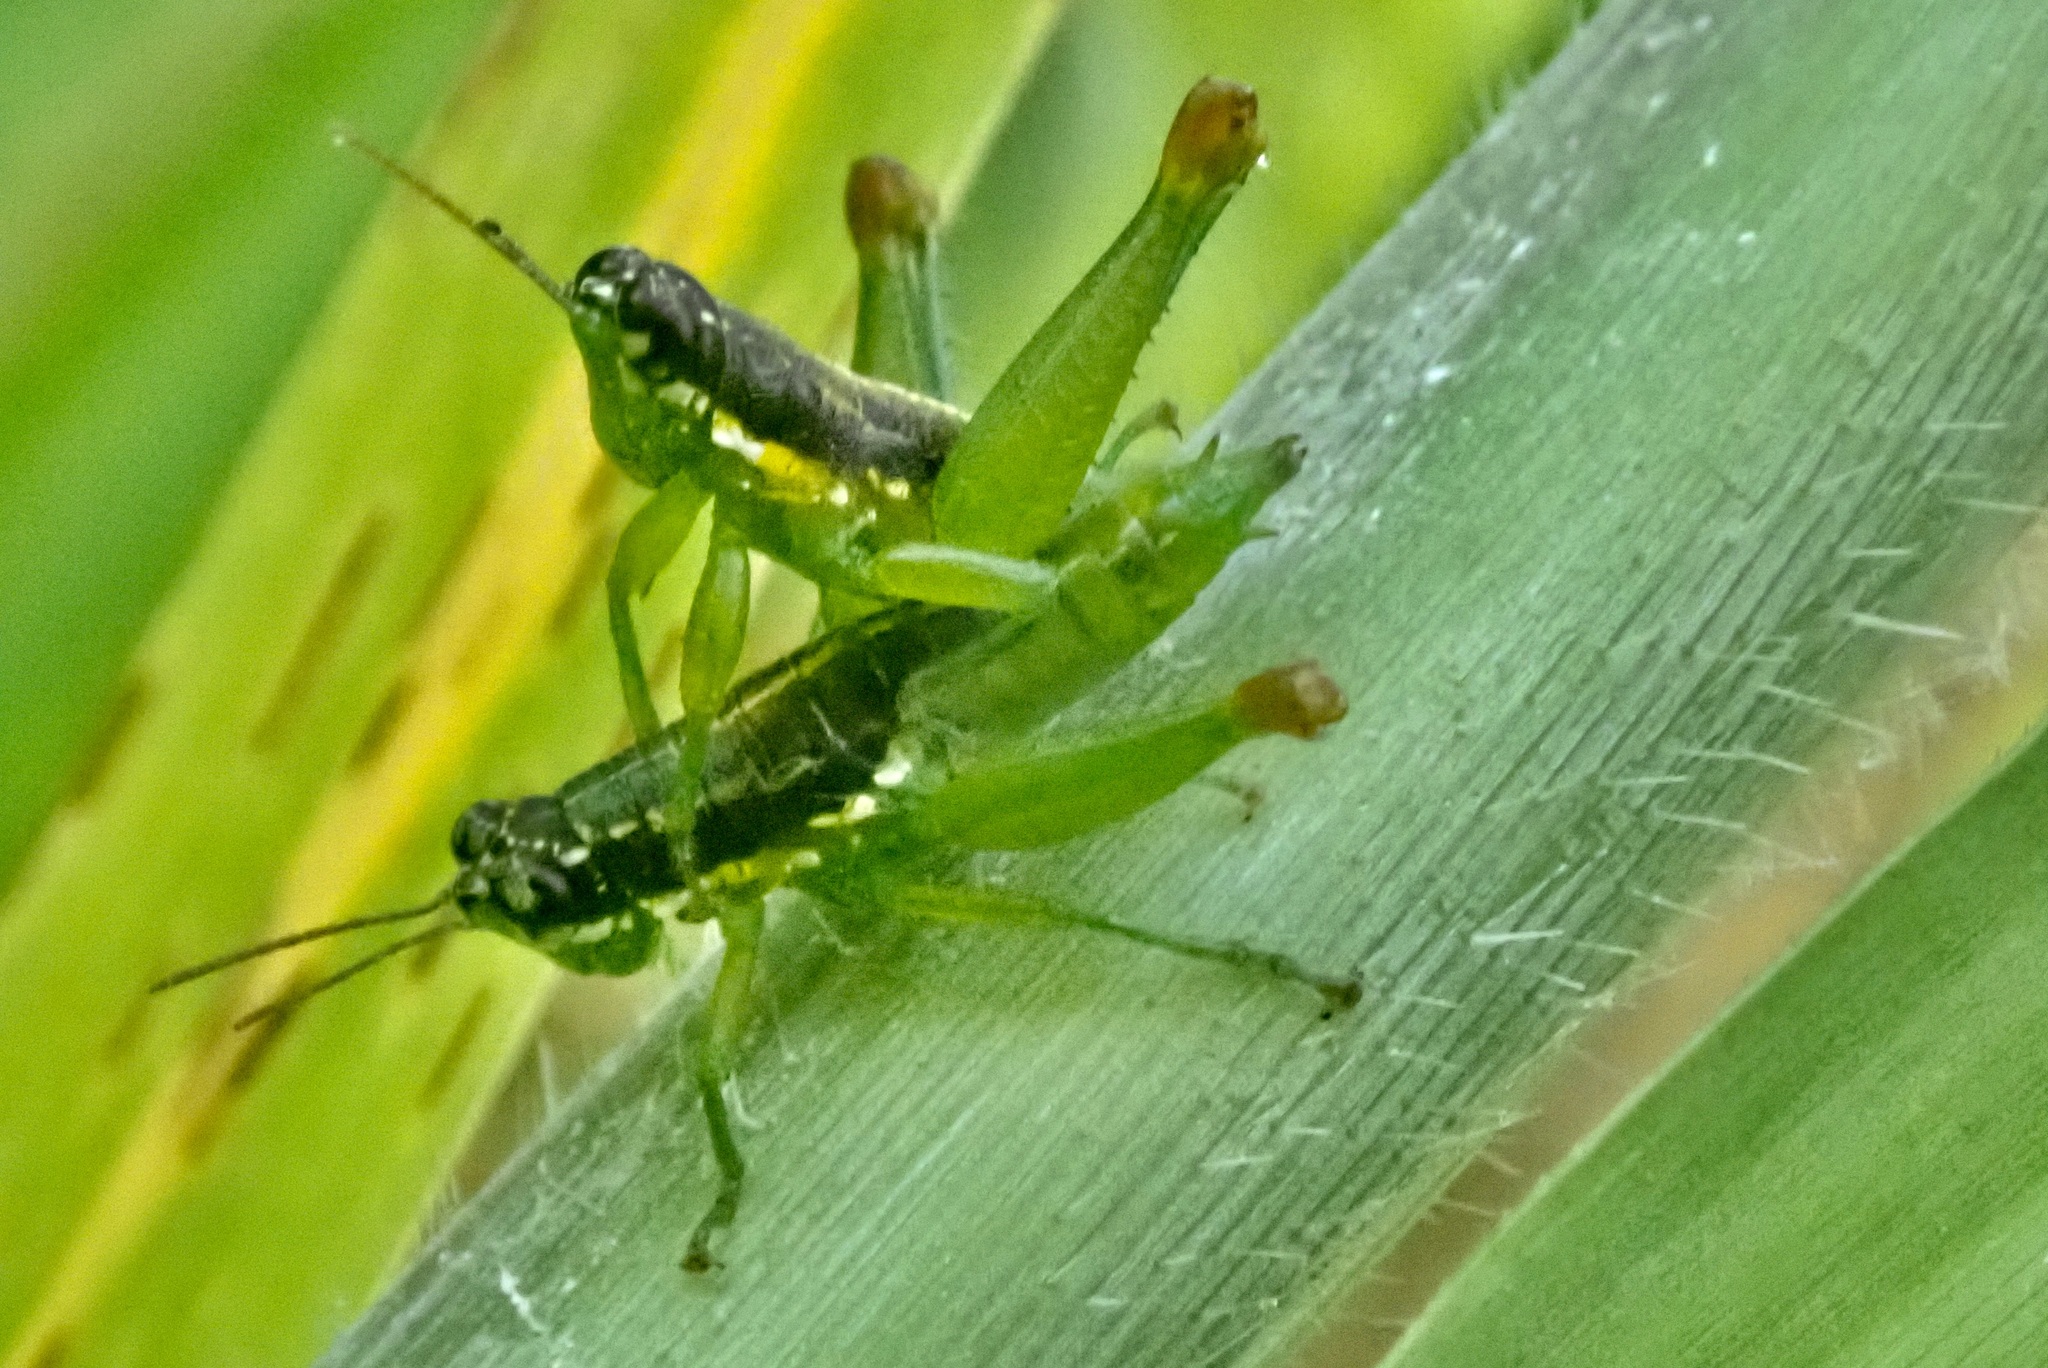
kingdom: Animalia
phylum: Arthropoda
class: Insecta
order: Orthoptera
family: Acrididae
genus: Liebermannacris
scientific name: Liebermannacris dorsualis
